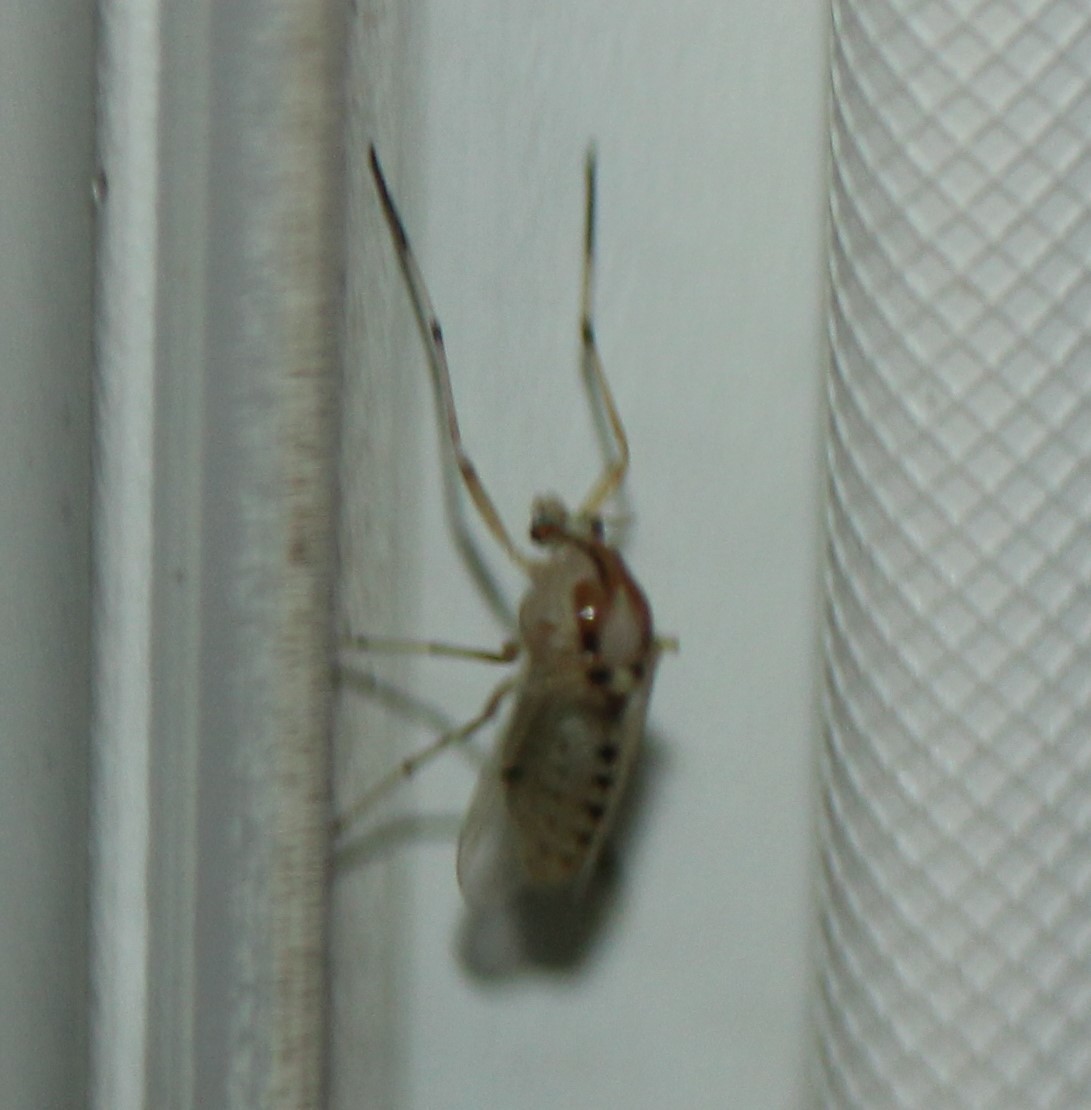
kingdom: Animalia
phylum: Arthropoda
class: Insecta
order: Diptera
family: Chironomidae
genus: Coelotanypus
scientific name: Coelotanypus concinnus
